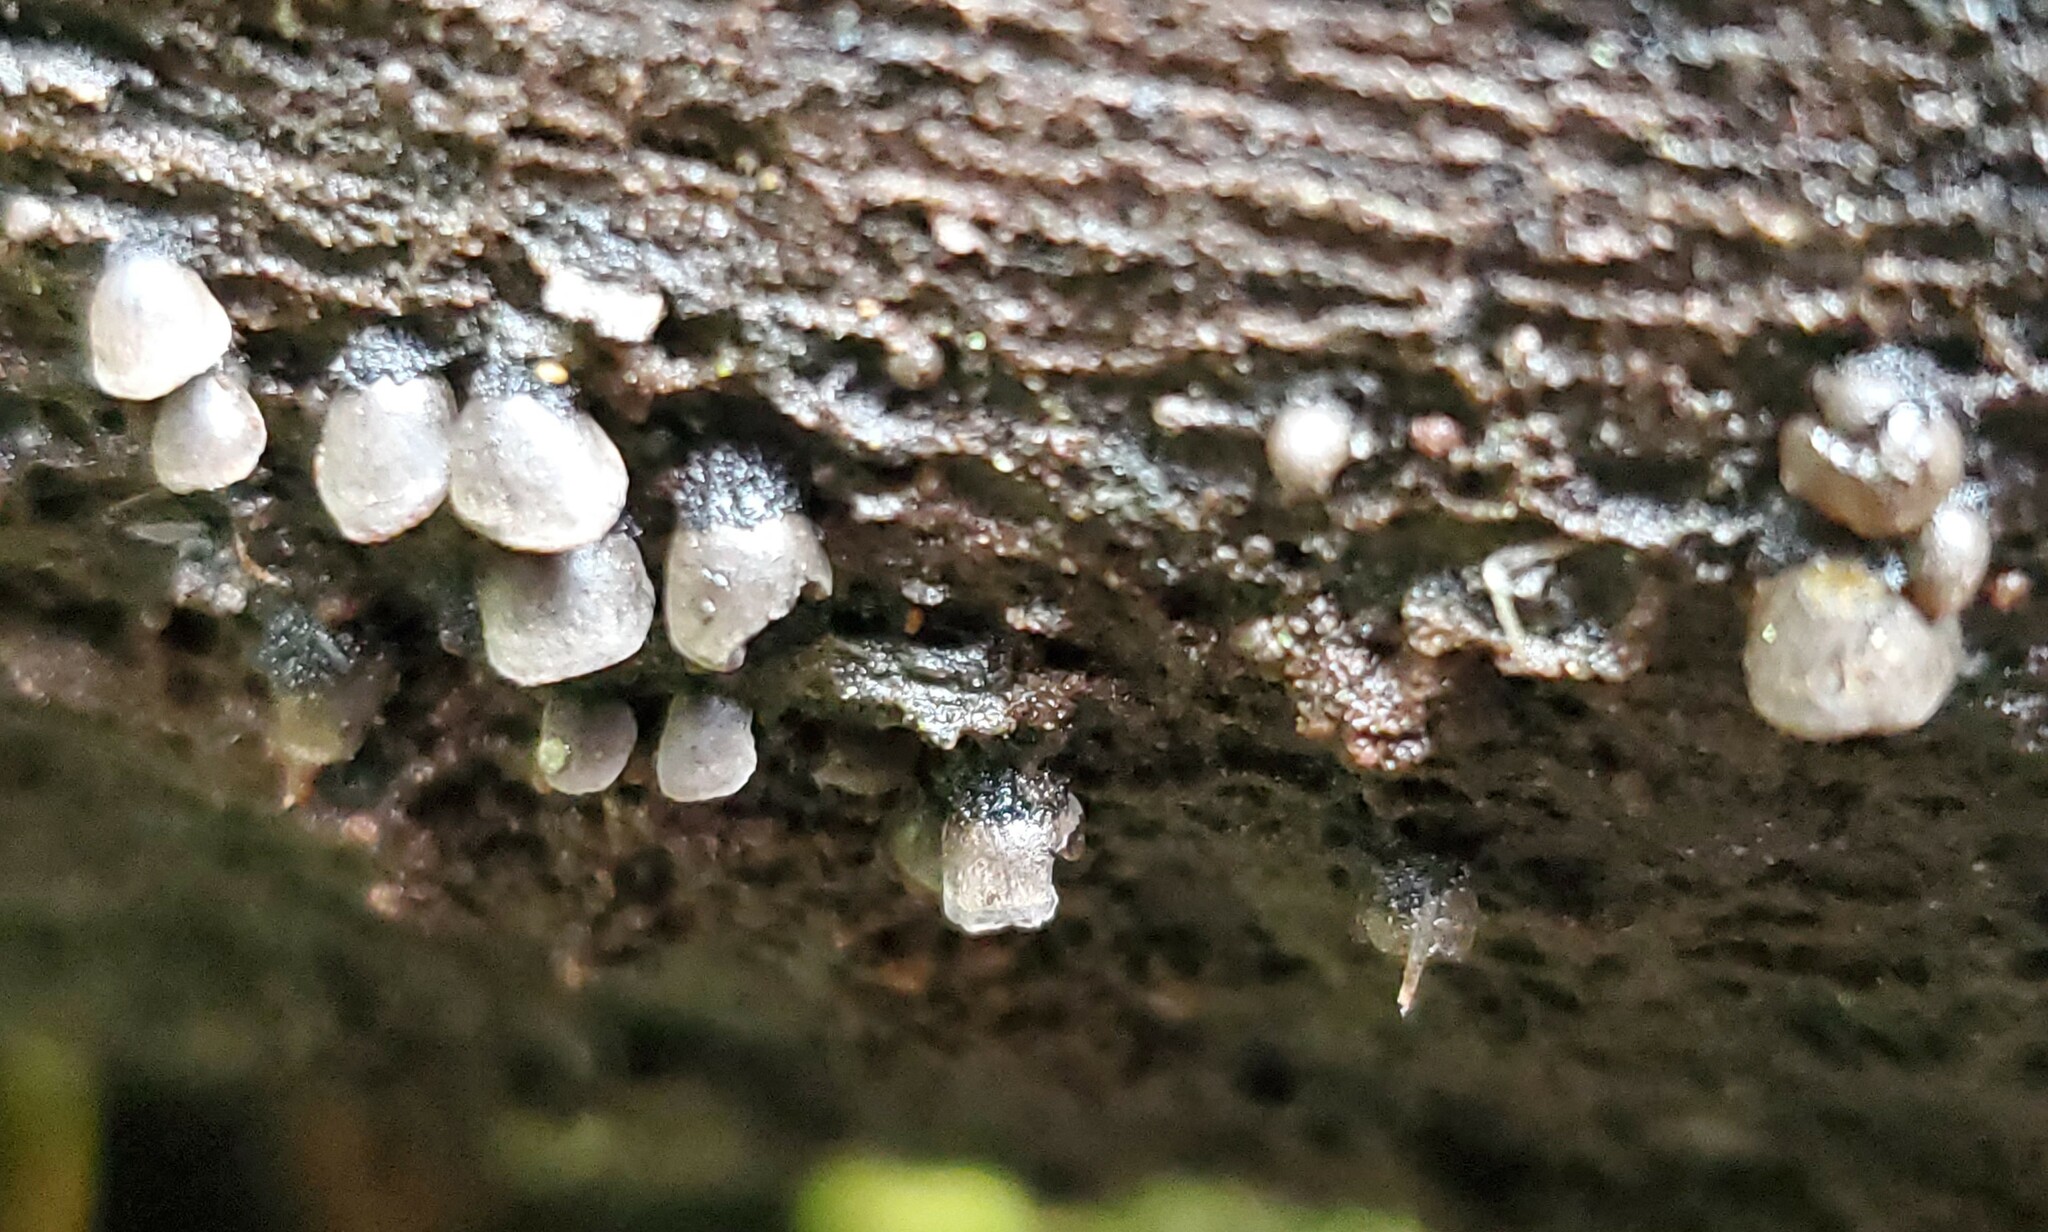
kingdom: Fungi
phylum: Basidiomycota
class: Agaricomycetes
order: Agaricales
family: Pleurotaceae
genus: Resupinatus
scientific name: Resupinatus applicatus
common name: Smoked oysterling
